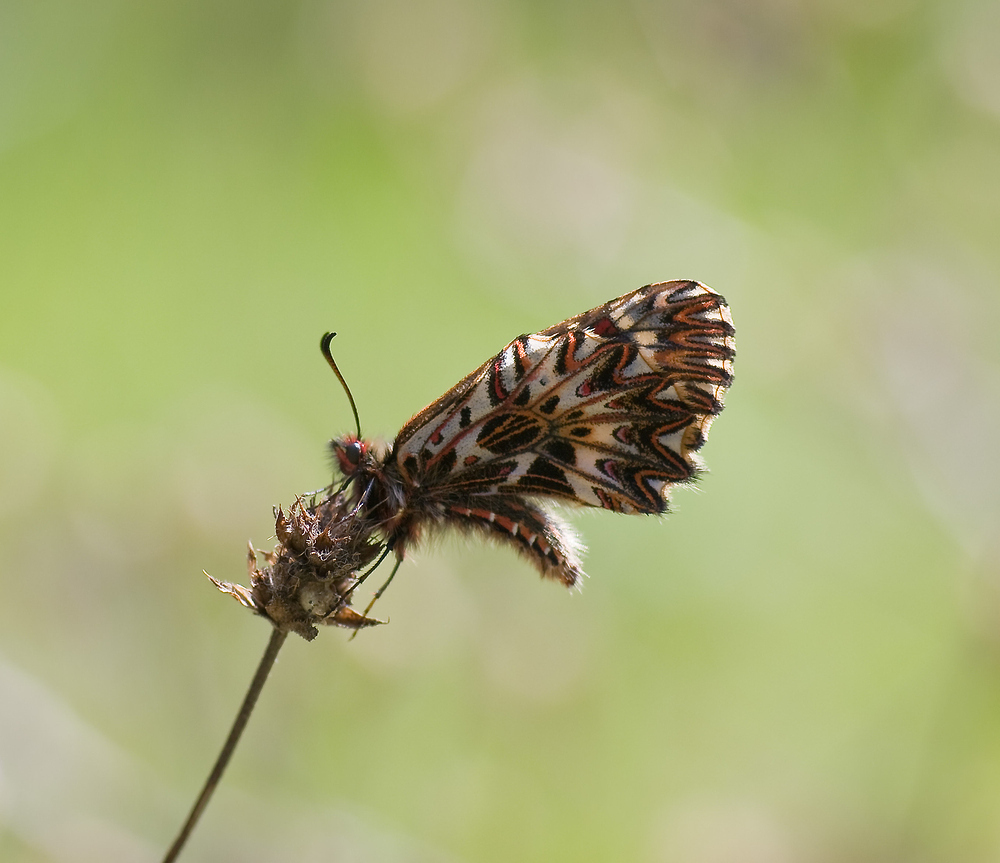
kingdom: Animalia
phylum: Arthropoda
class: Insecta
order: Lepidoptera
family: Papilionidae
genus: Zerynthia
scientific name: Zerynthia polyxena
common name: Southern festoon
